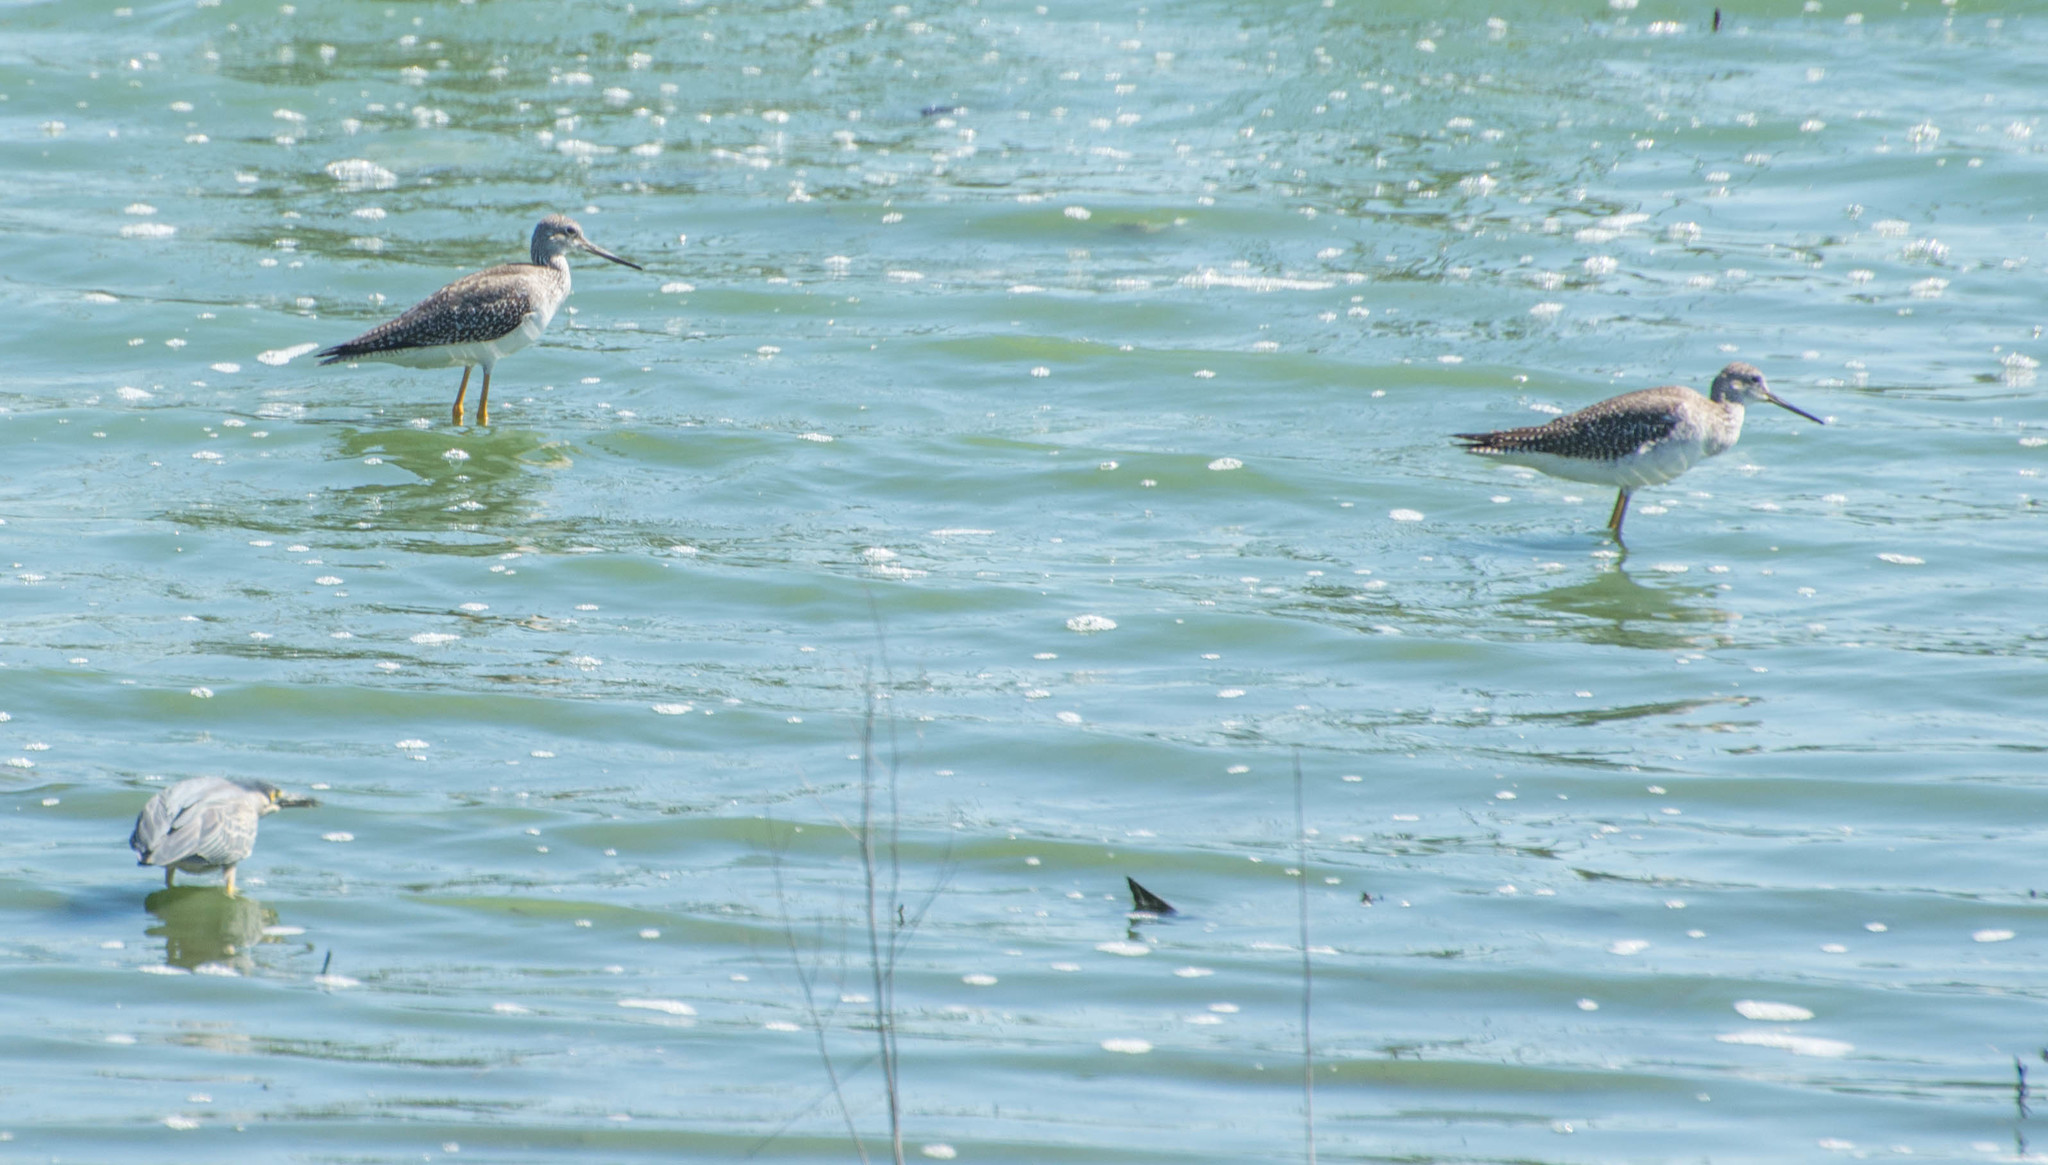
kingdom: Animalia
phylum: Chordata
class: Aves
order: Charadriiformes
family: Scolopacidae
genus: Tringa
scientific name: Tringa melanoleuca
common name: Greater yellowlegs
